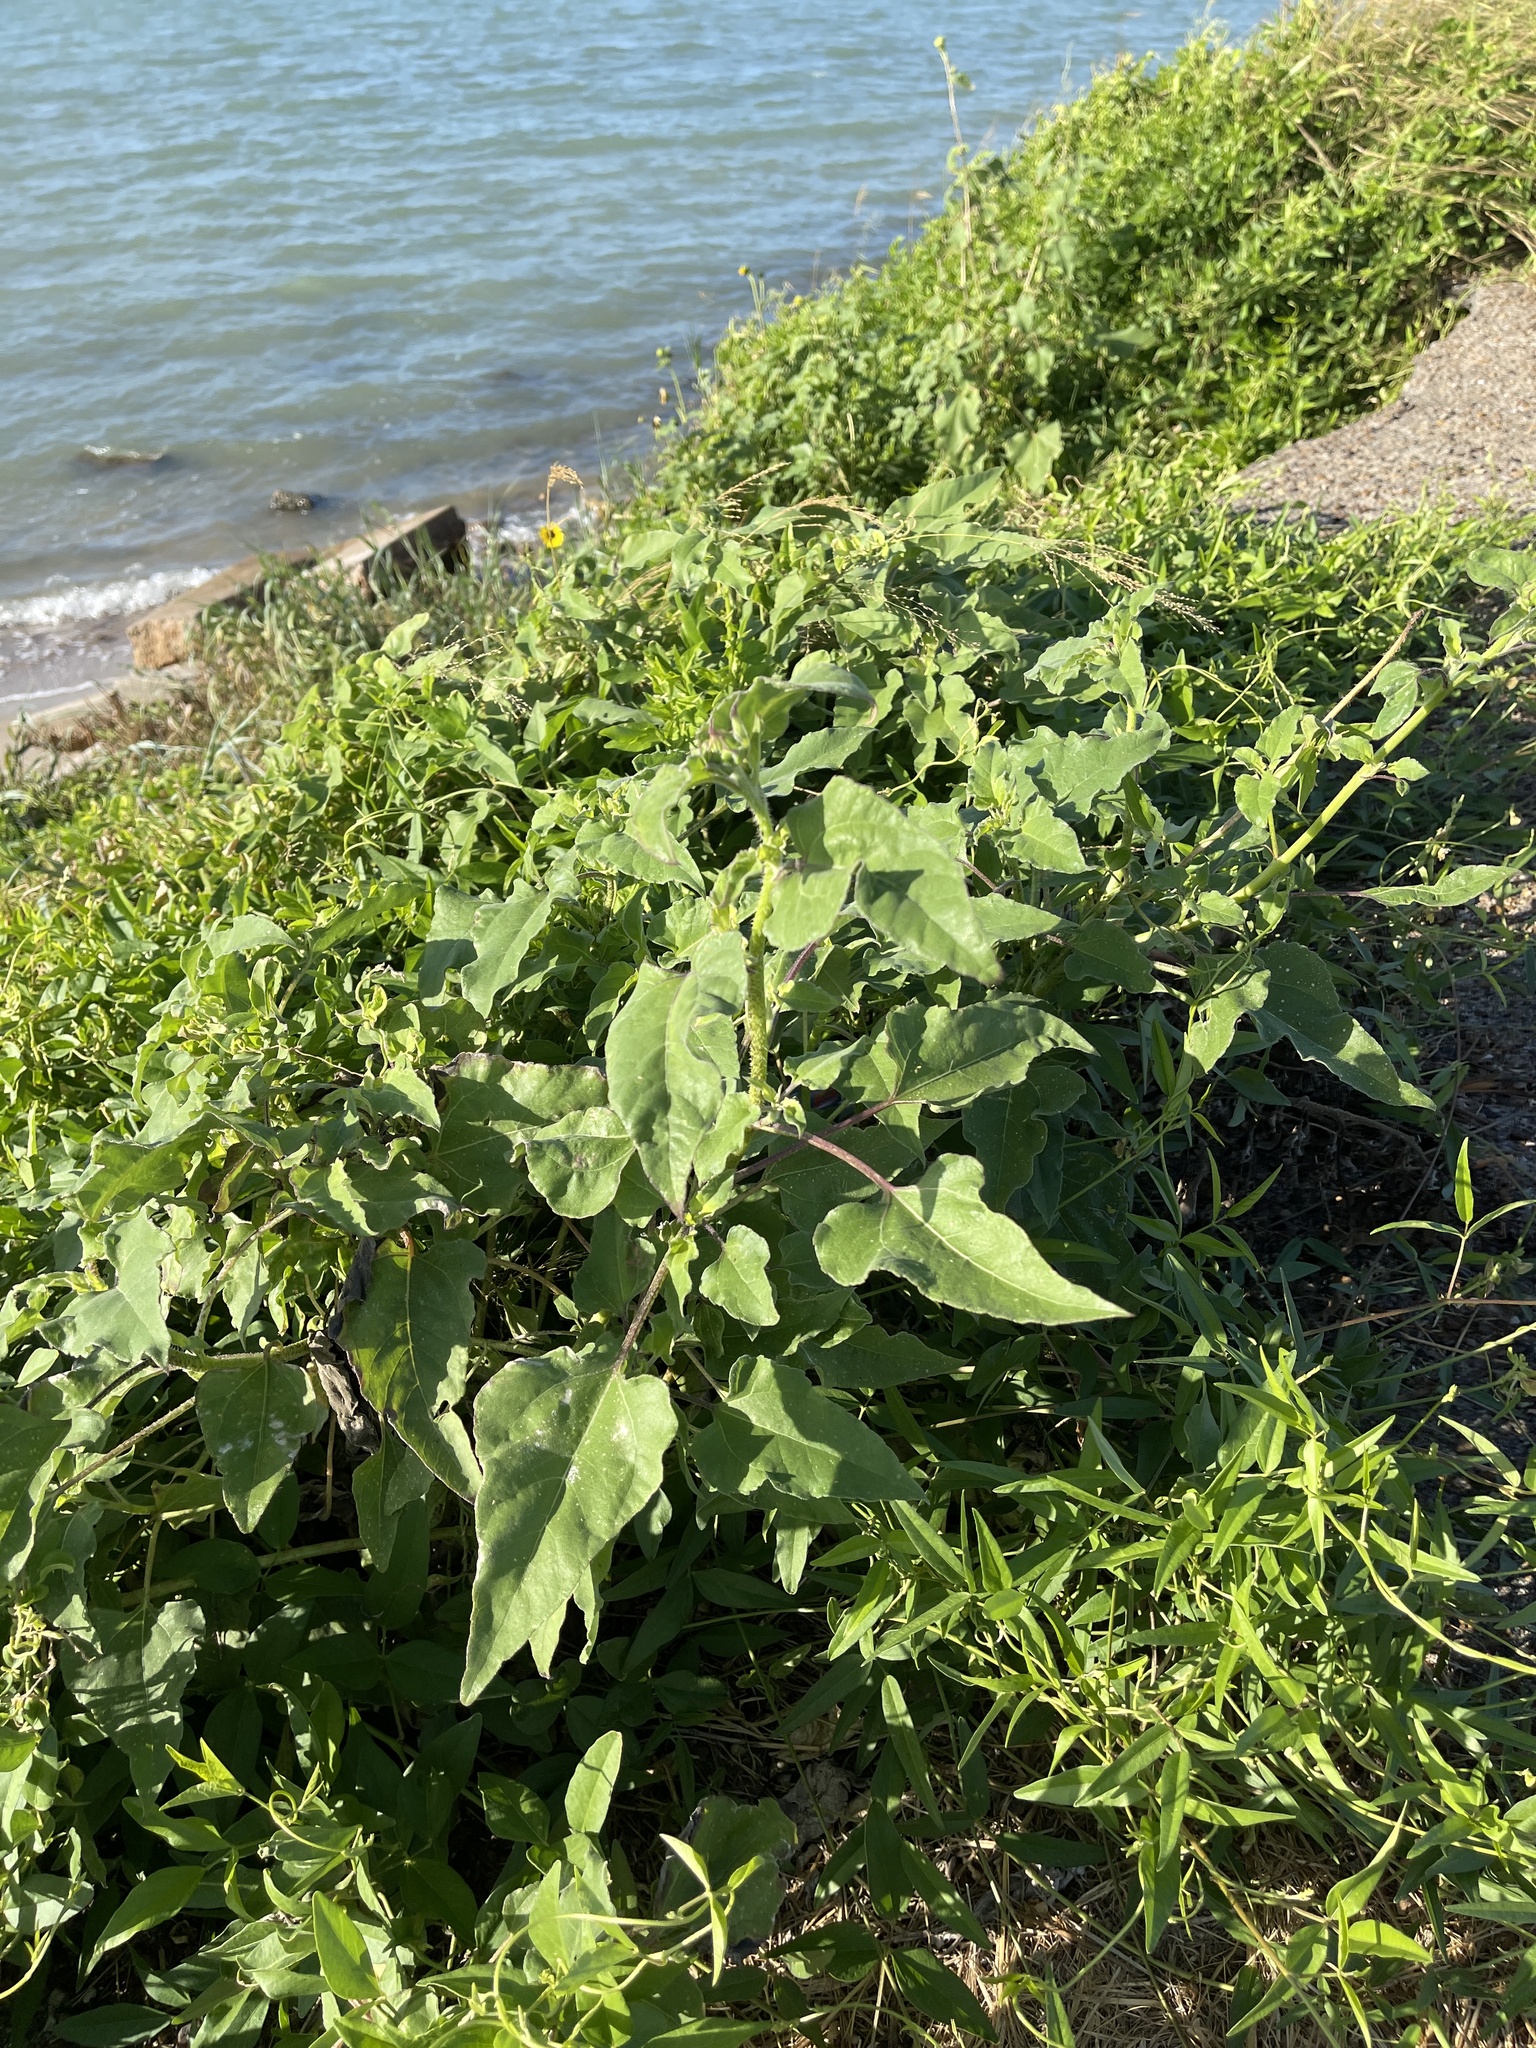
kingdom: Plantae
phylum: Tracheophyta
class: Magnoliopsida
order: Asterales
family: Asteraceae
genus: Helianthus
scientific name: Helianthus annuus
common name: Sunflower
